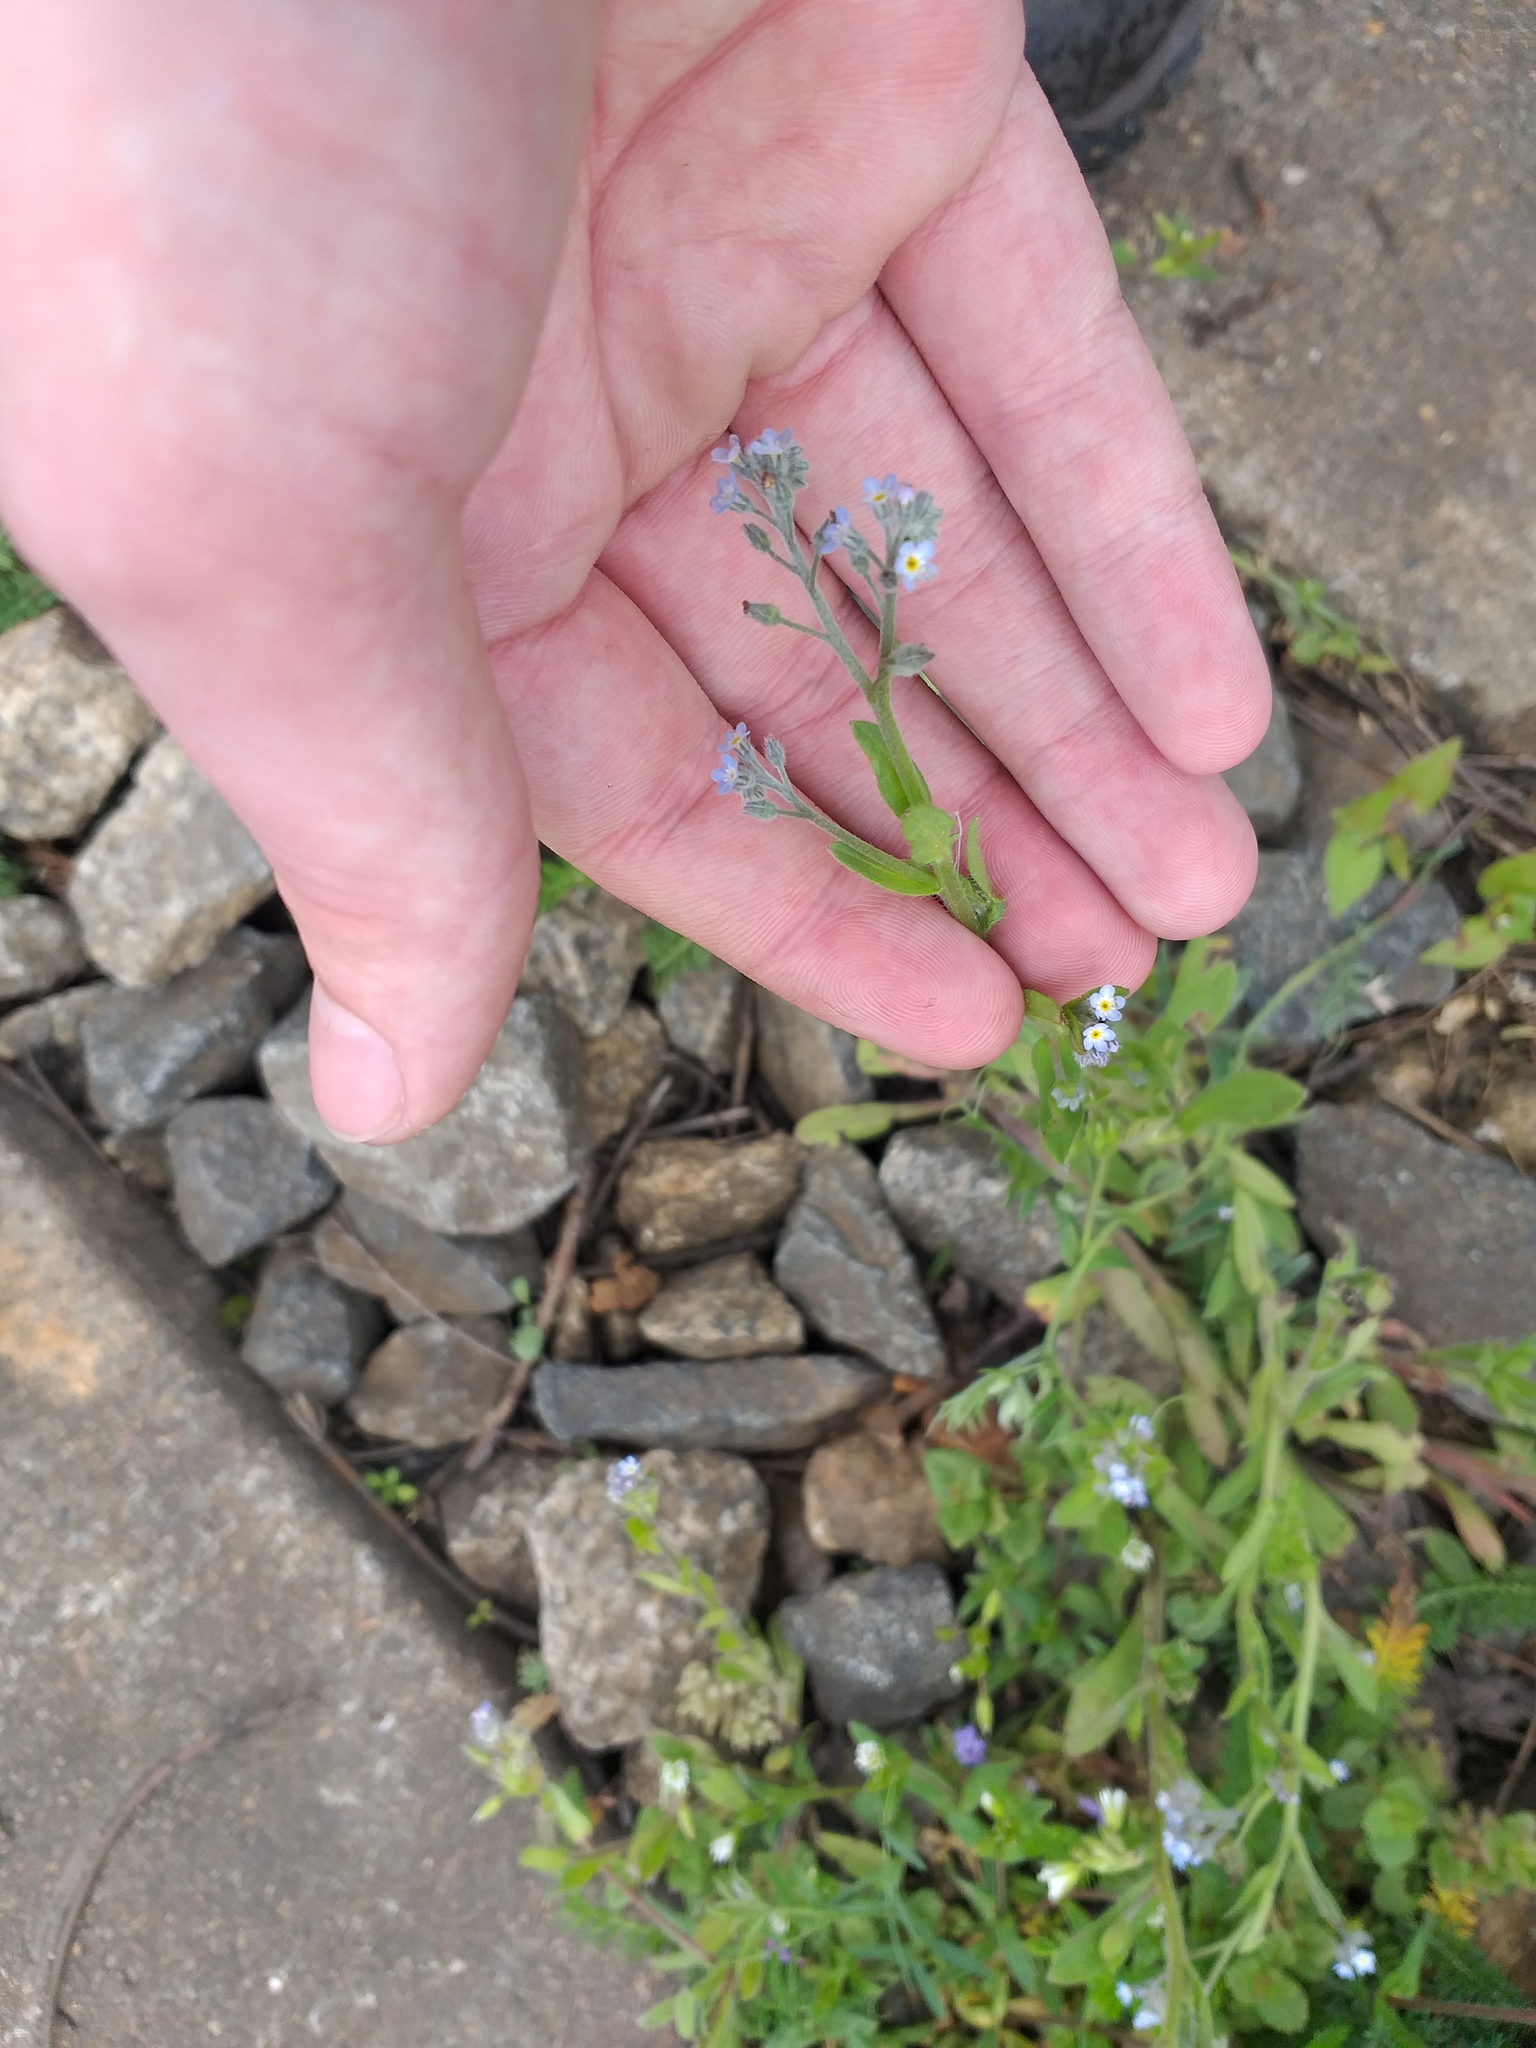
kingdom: Plantae
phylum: Tracheophyta
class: Magnoliopsida
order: Boraginales
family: Boraginaceae
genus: Myosotis
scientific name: Myosotis arvensis
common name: Field forget-me-not
